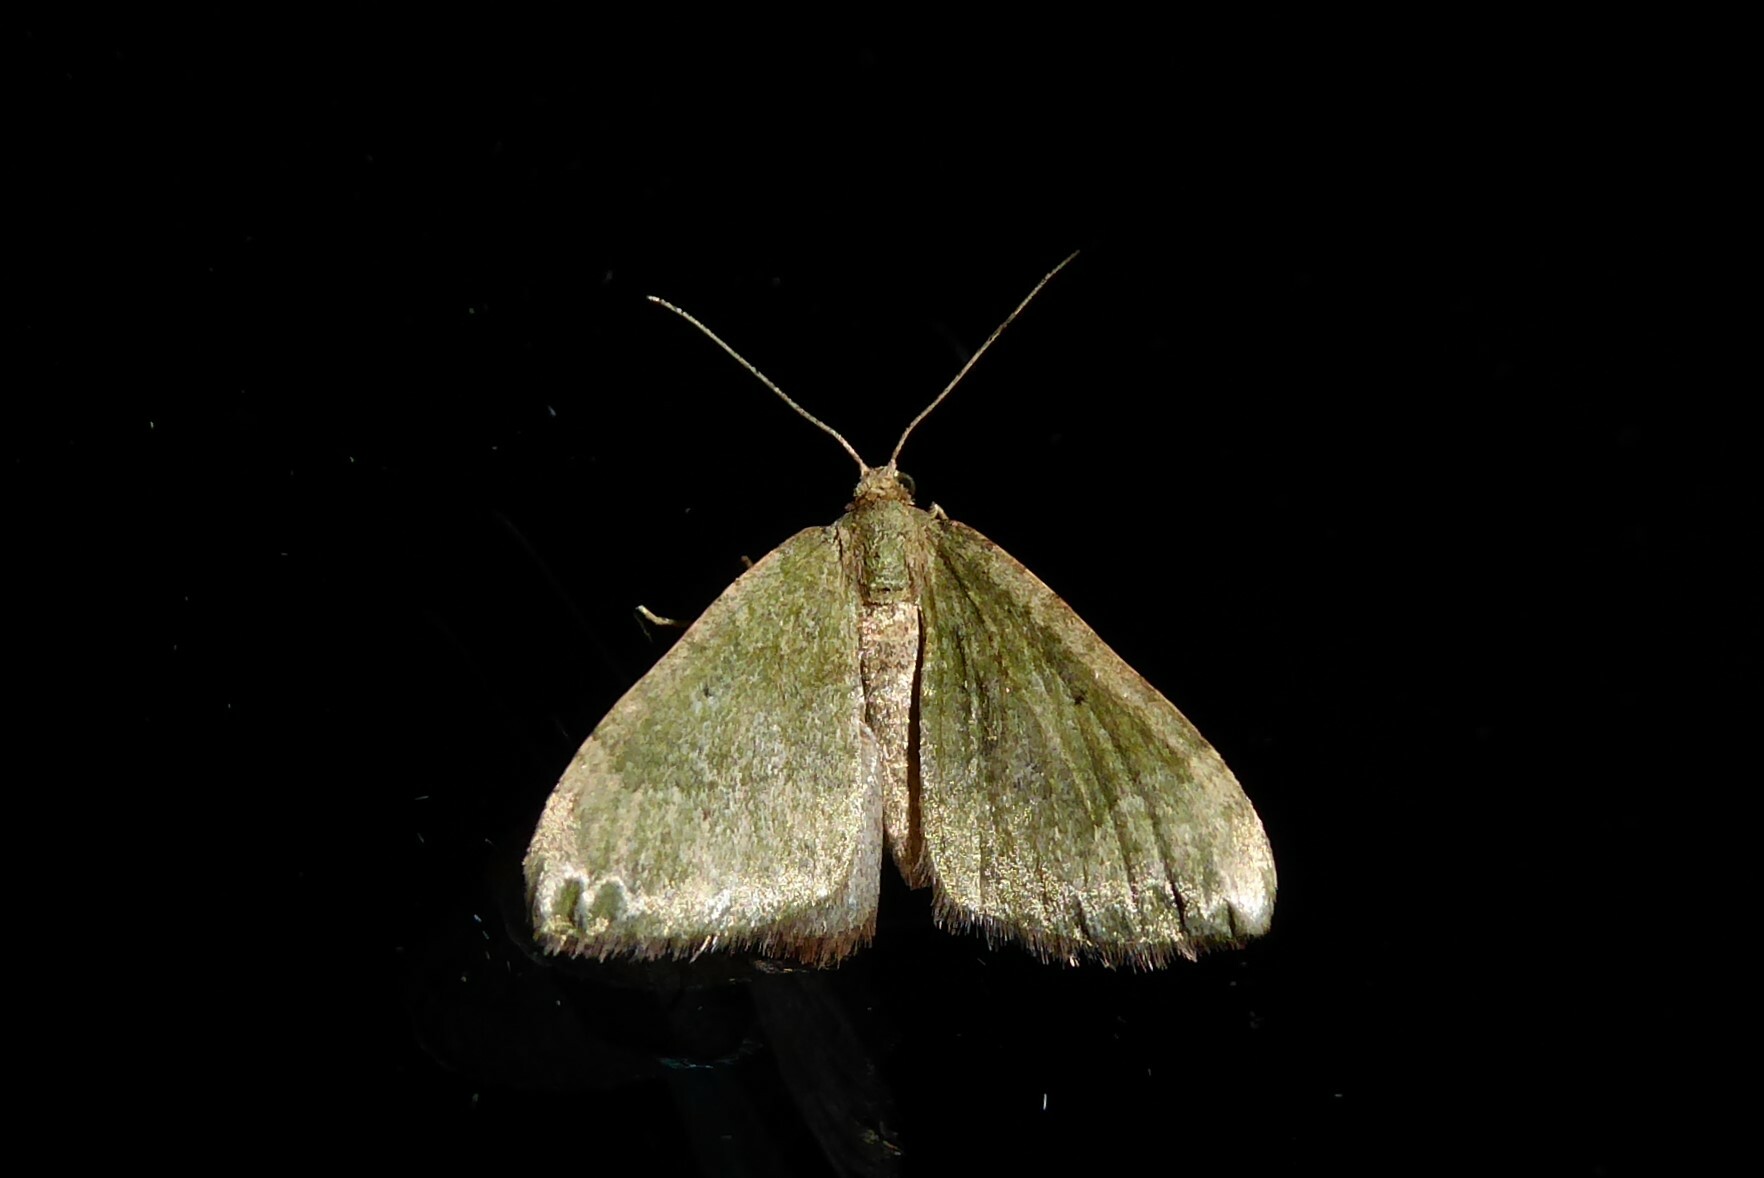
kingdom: Animalia
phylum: Arthropoda
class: Insecta
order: Lepidoptera
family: Geometridae
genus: Epyaxa
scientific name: Epyaxa rosearia
